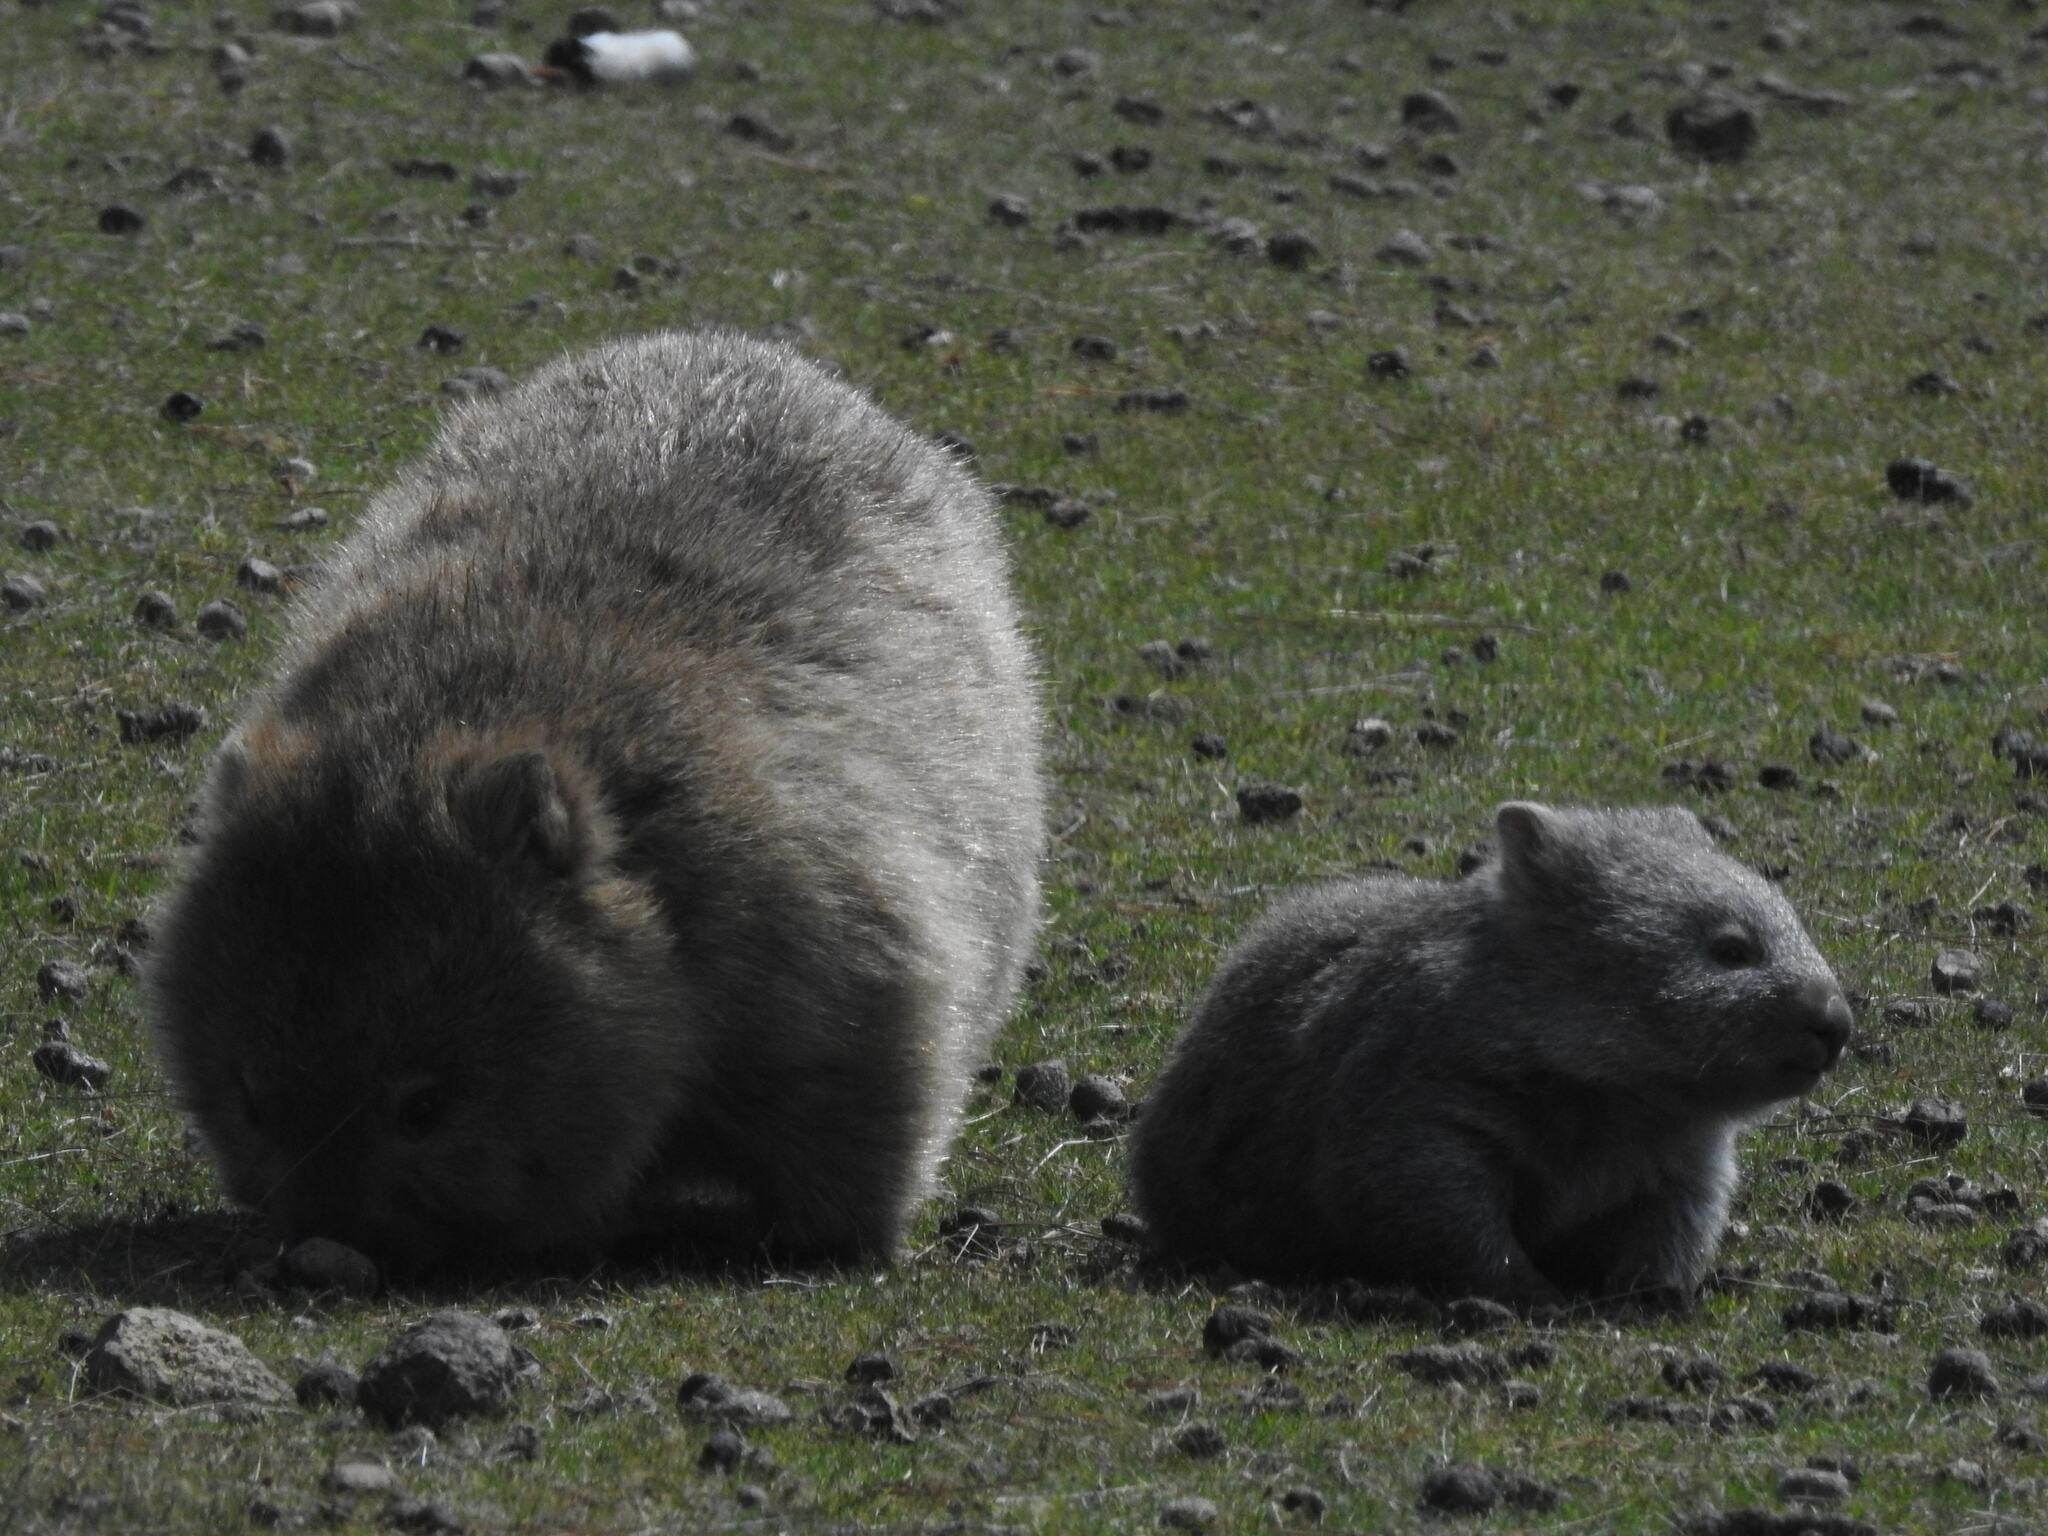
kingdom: Animalia
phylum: Chordata
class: Mammalia
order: Diprotodontia
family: Vombatidae
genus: Vombatus
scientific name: Vombatus ursinus
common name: Common wombat
